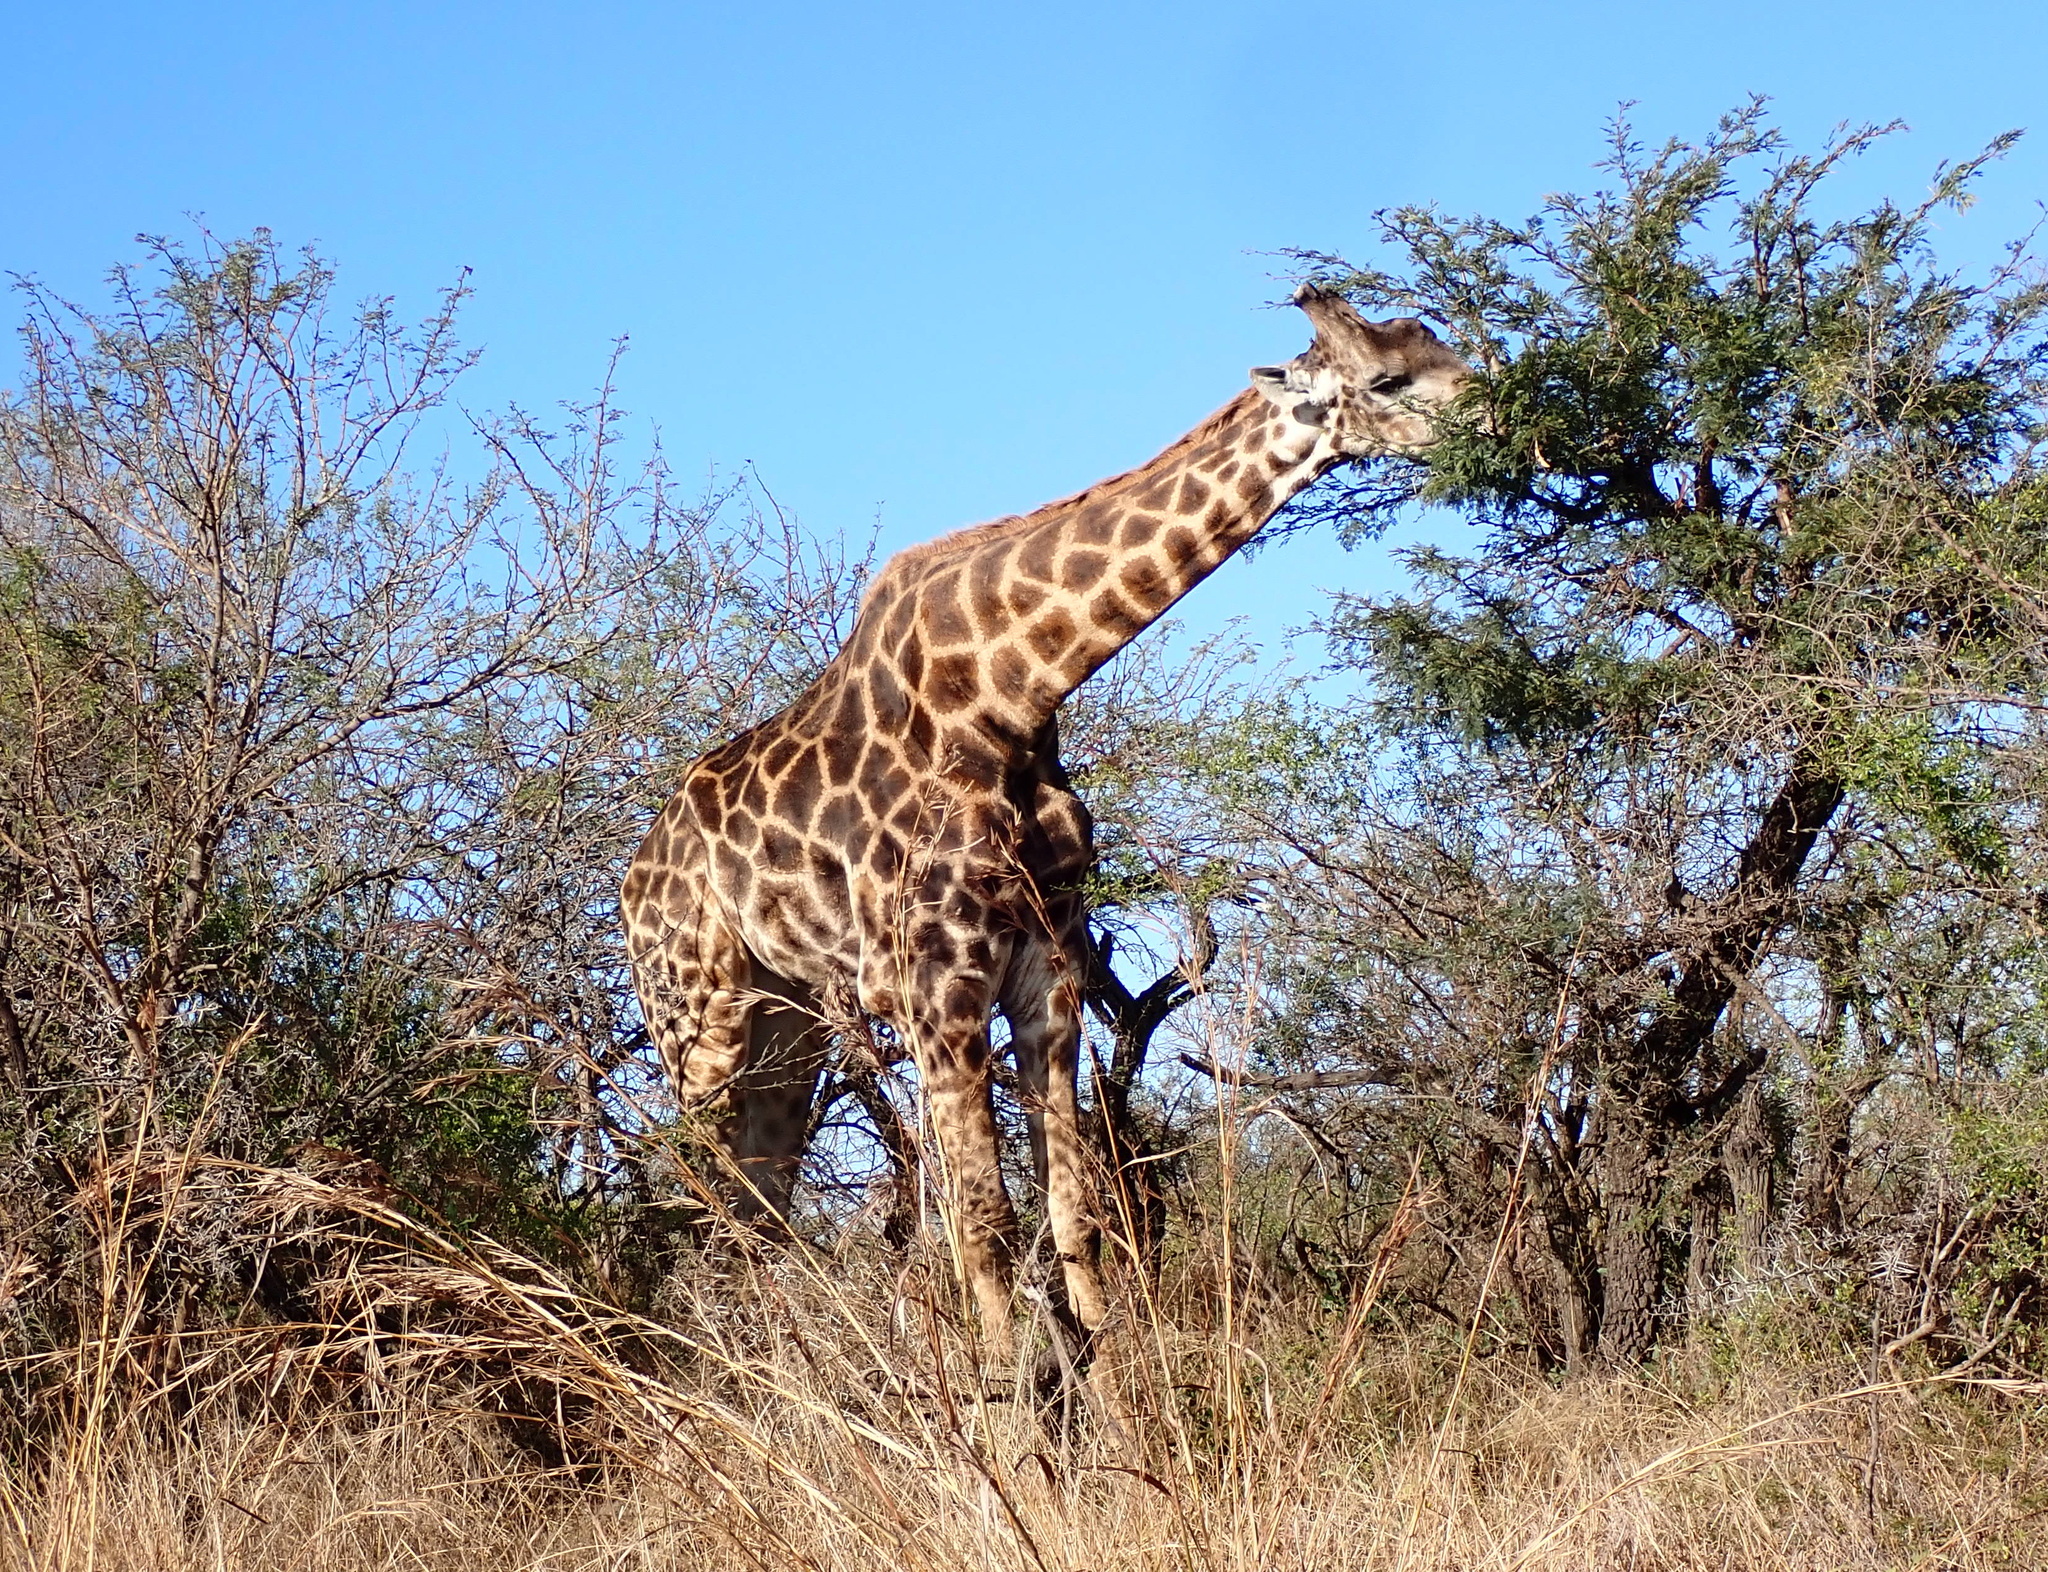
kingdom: Animalia
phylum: Chordata
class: Mammalia
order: Artiodactyla
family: Giraffidae
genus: Giraffa
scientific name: Giraffa giraffa
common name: Southern giraffe
